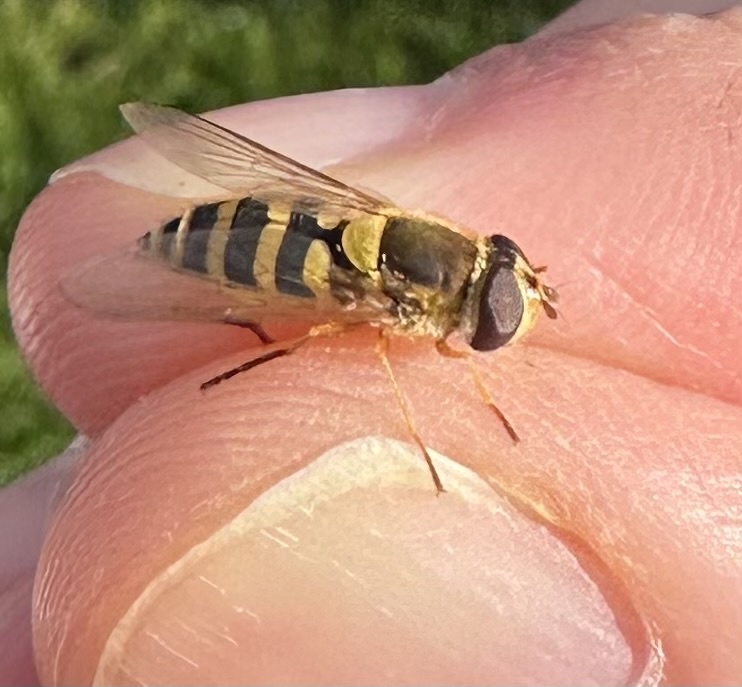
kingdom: Animalia
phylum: Arthropoda
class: Insecta
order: Diptera
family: Syrphidae
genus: Syrphus
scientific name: Syrphus ribesii
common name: Common flower fly
